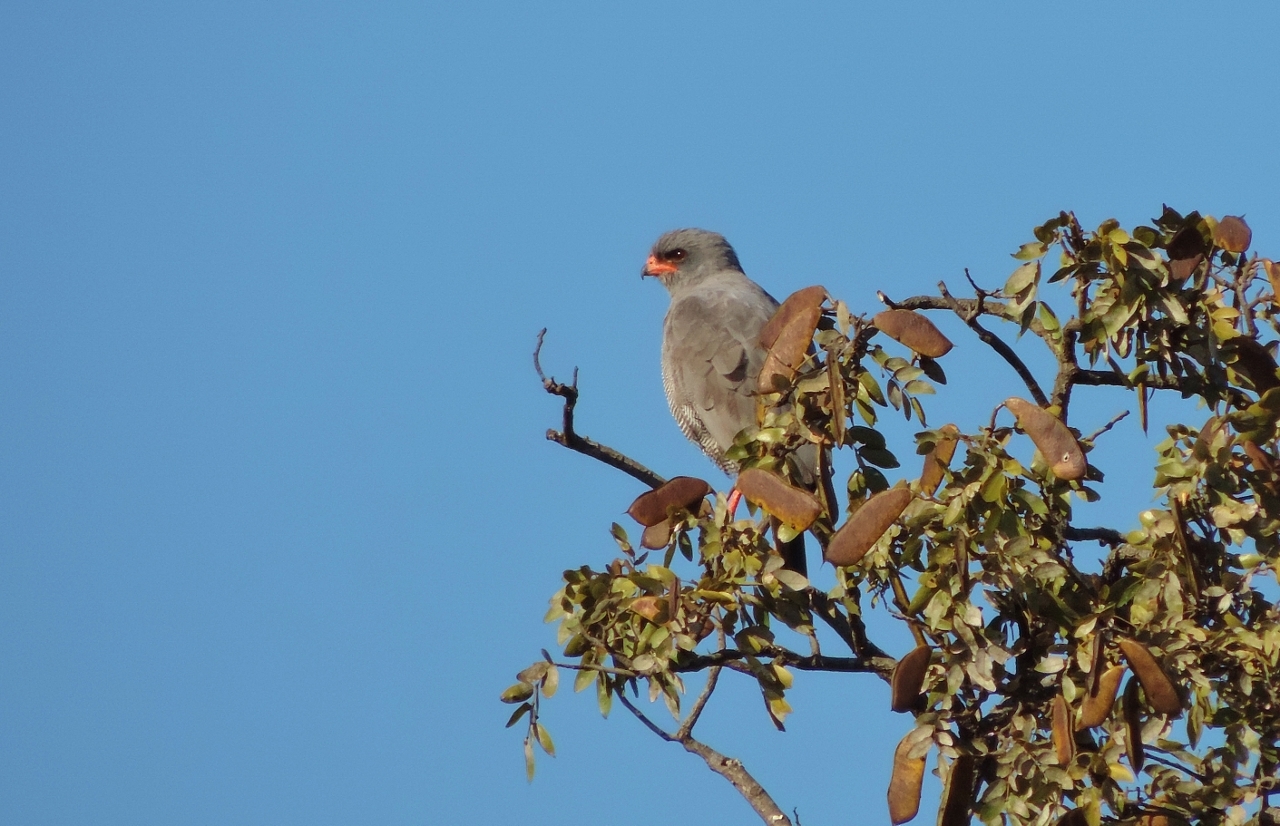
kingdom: Animalia
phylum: Chordata
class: Aves
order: Accipitriformes
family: Accipitridae
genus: Melierax
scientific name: Melierax metabates
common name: Dark chanting-goshawk
